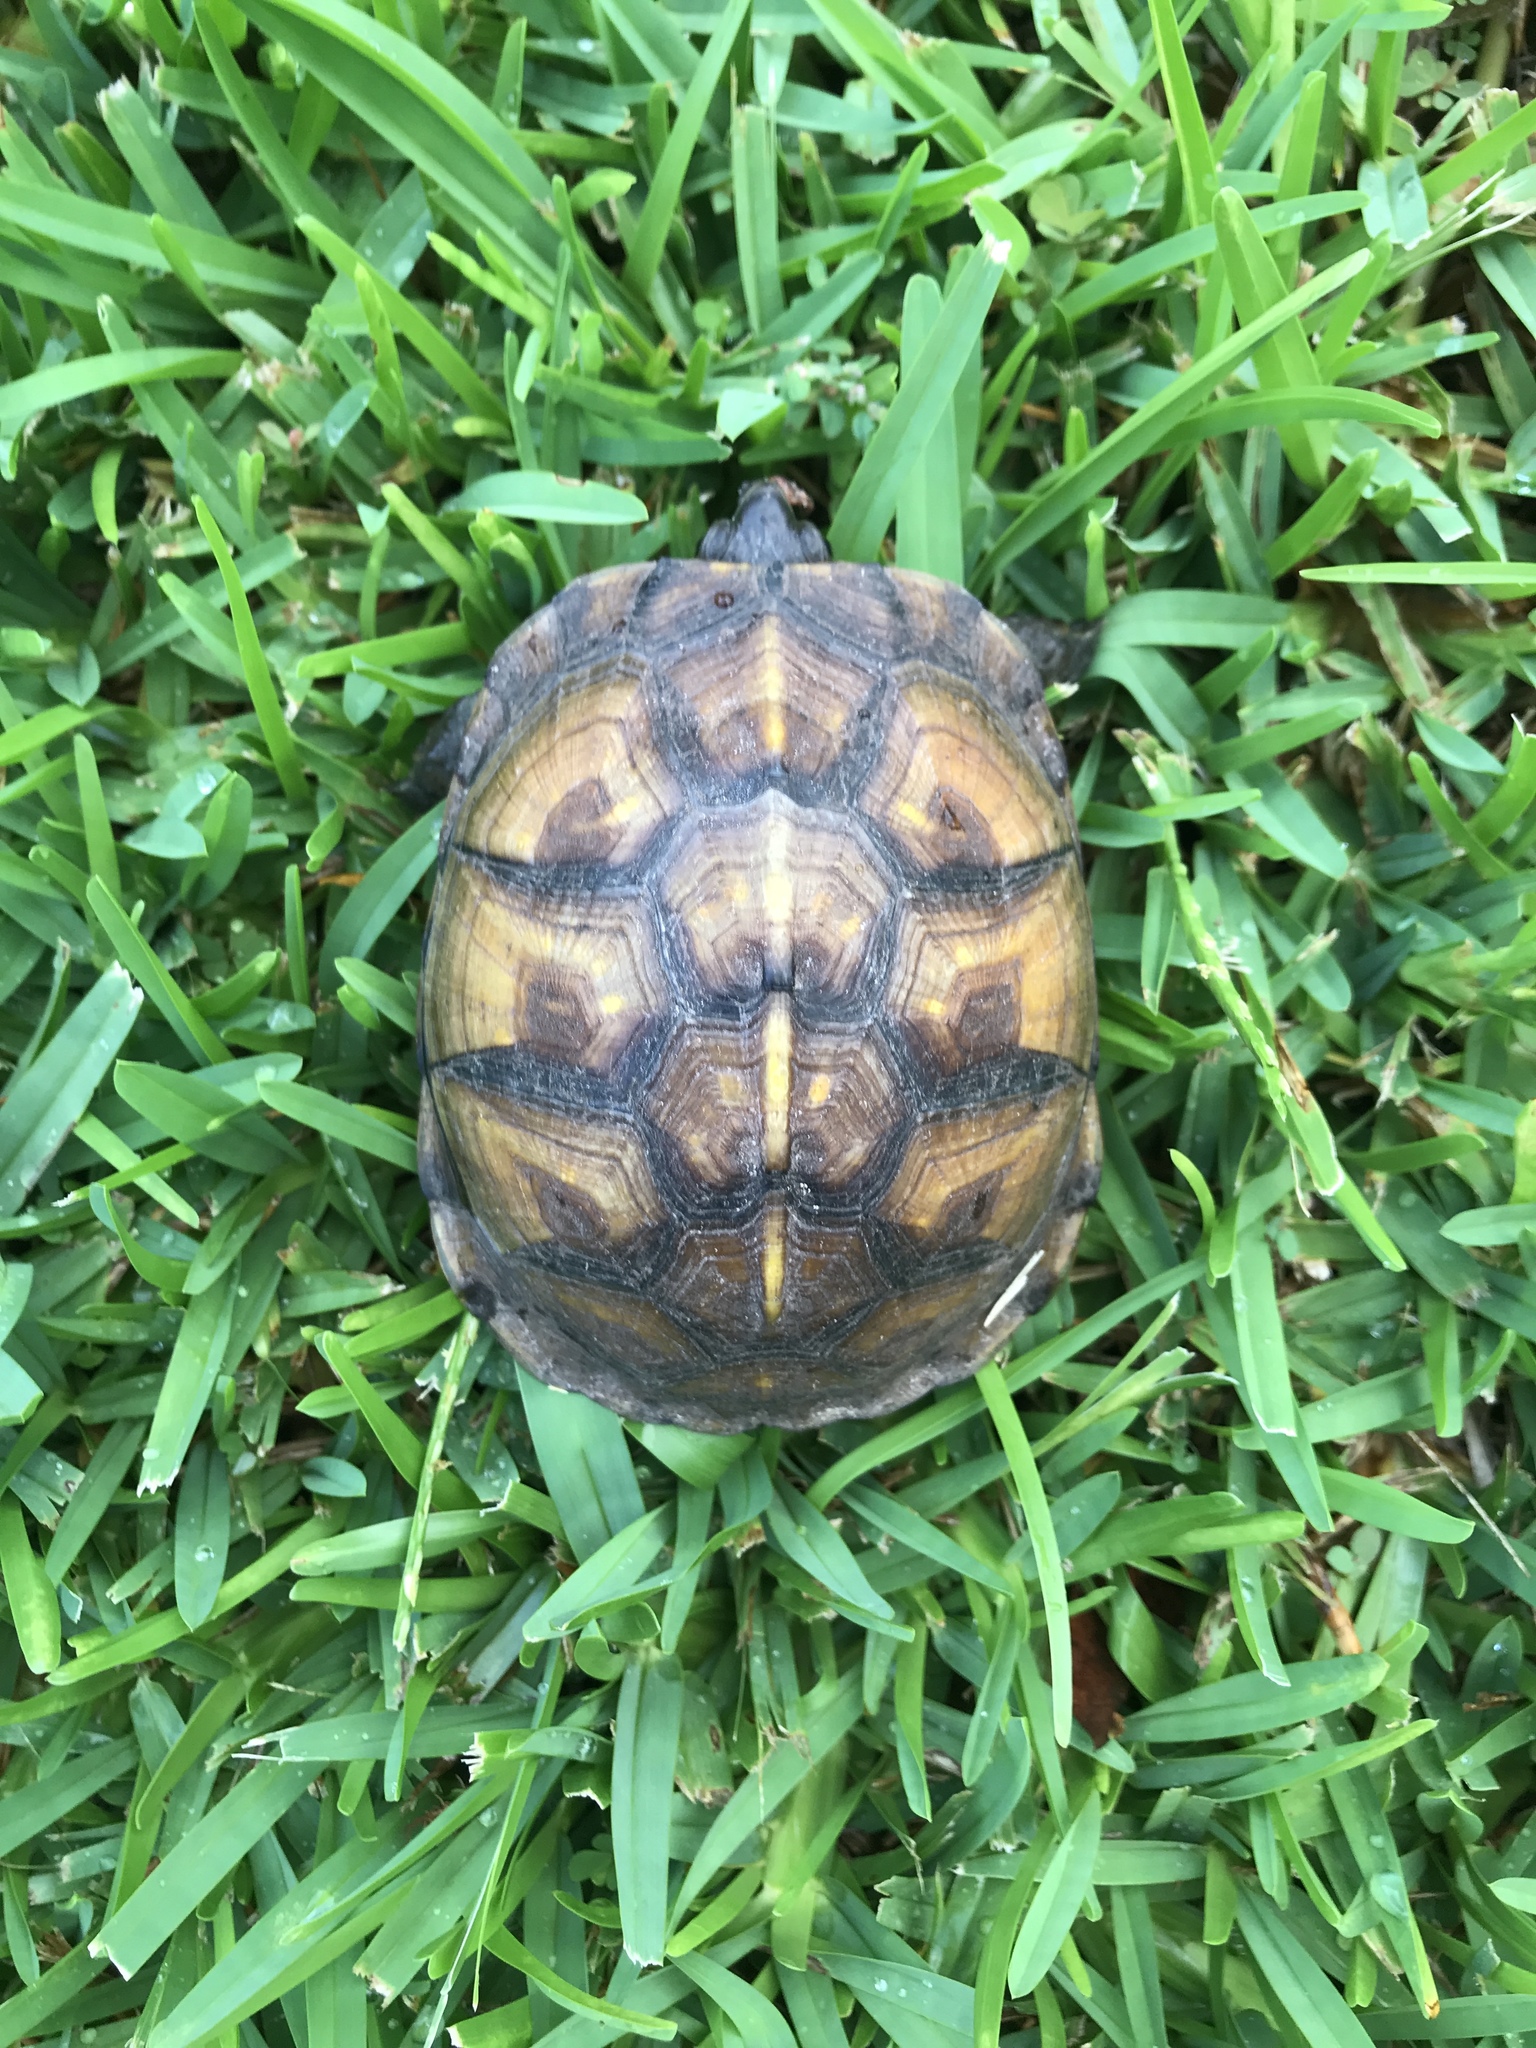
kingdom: Animalia
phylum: Chordata
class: Testudines
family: Emydidae
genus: Terrapene
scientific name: Terrapene carolina
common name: Common box turtle
